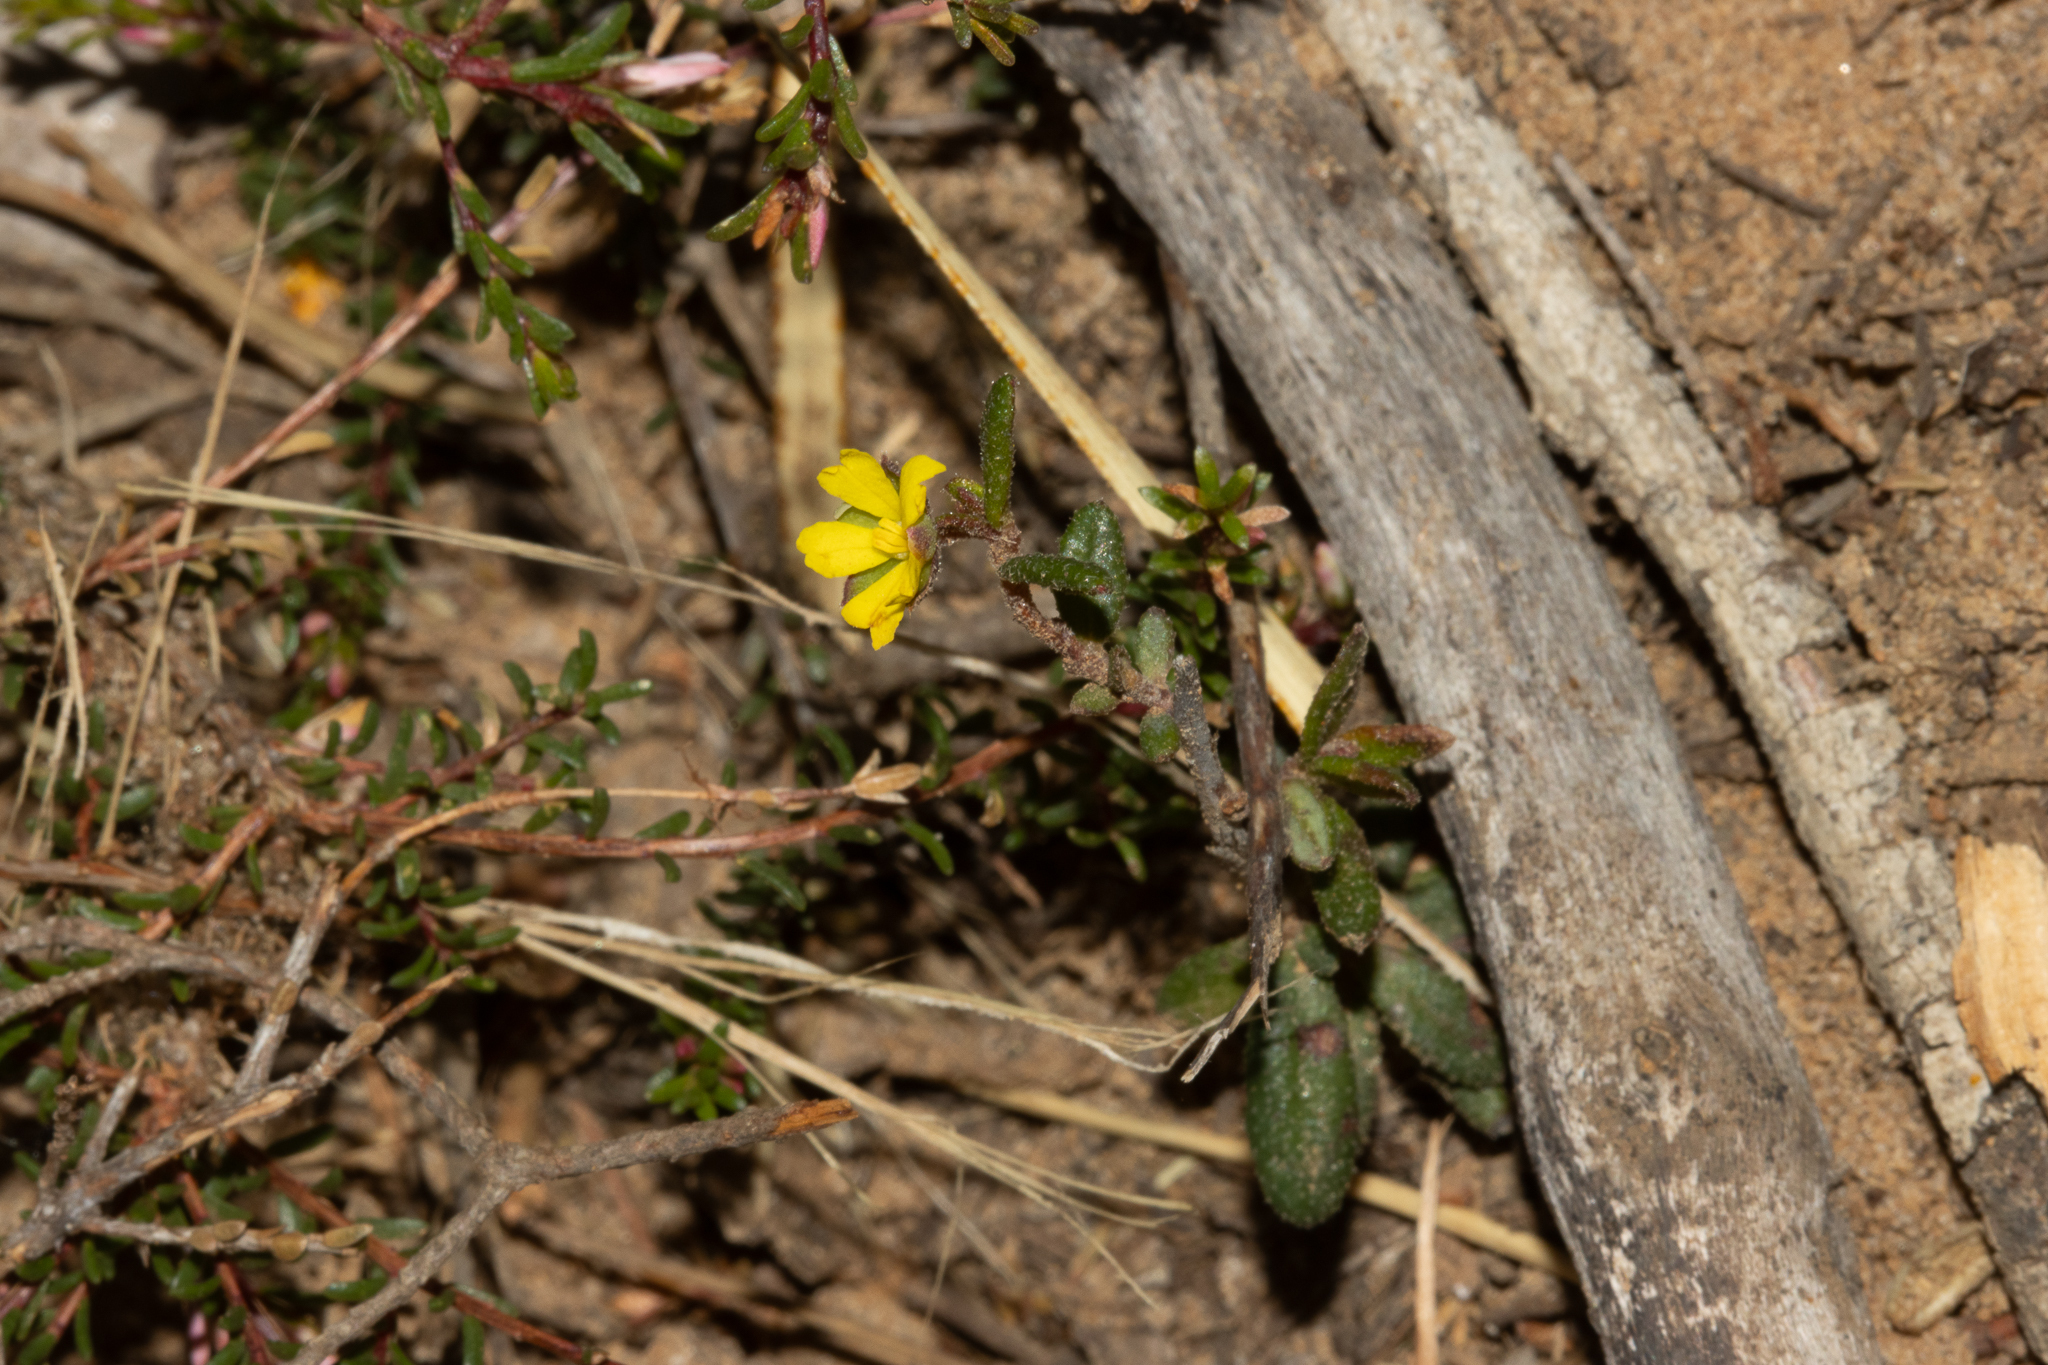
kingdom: Plantae
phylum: Tracheophyta
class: Magnoliopsida
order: Dilleniales
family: Dilleniaceae
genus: Hibbertia
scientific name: Hibbertia
